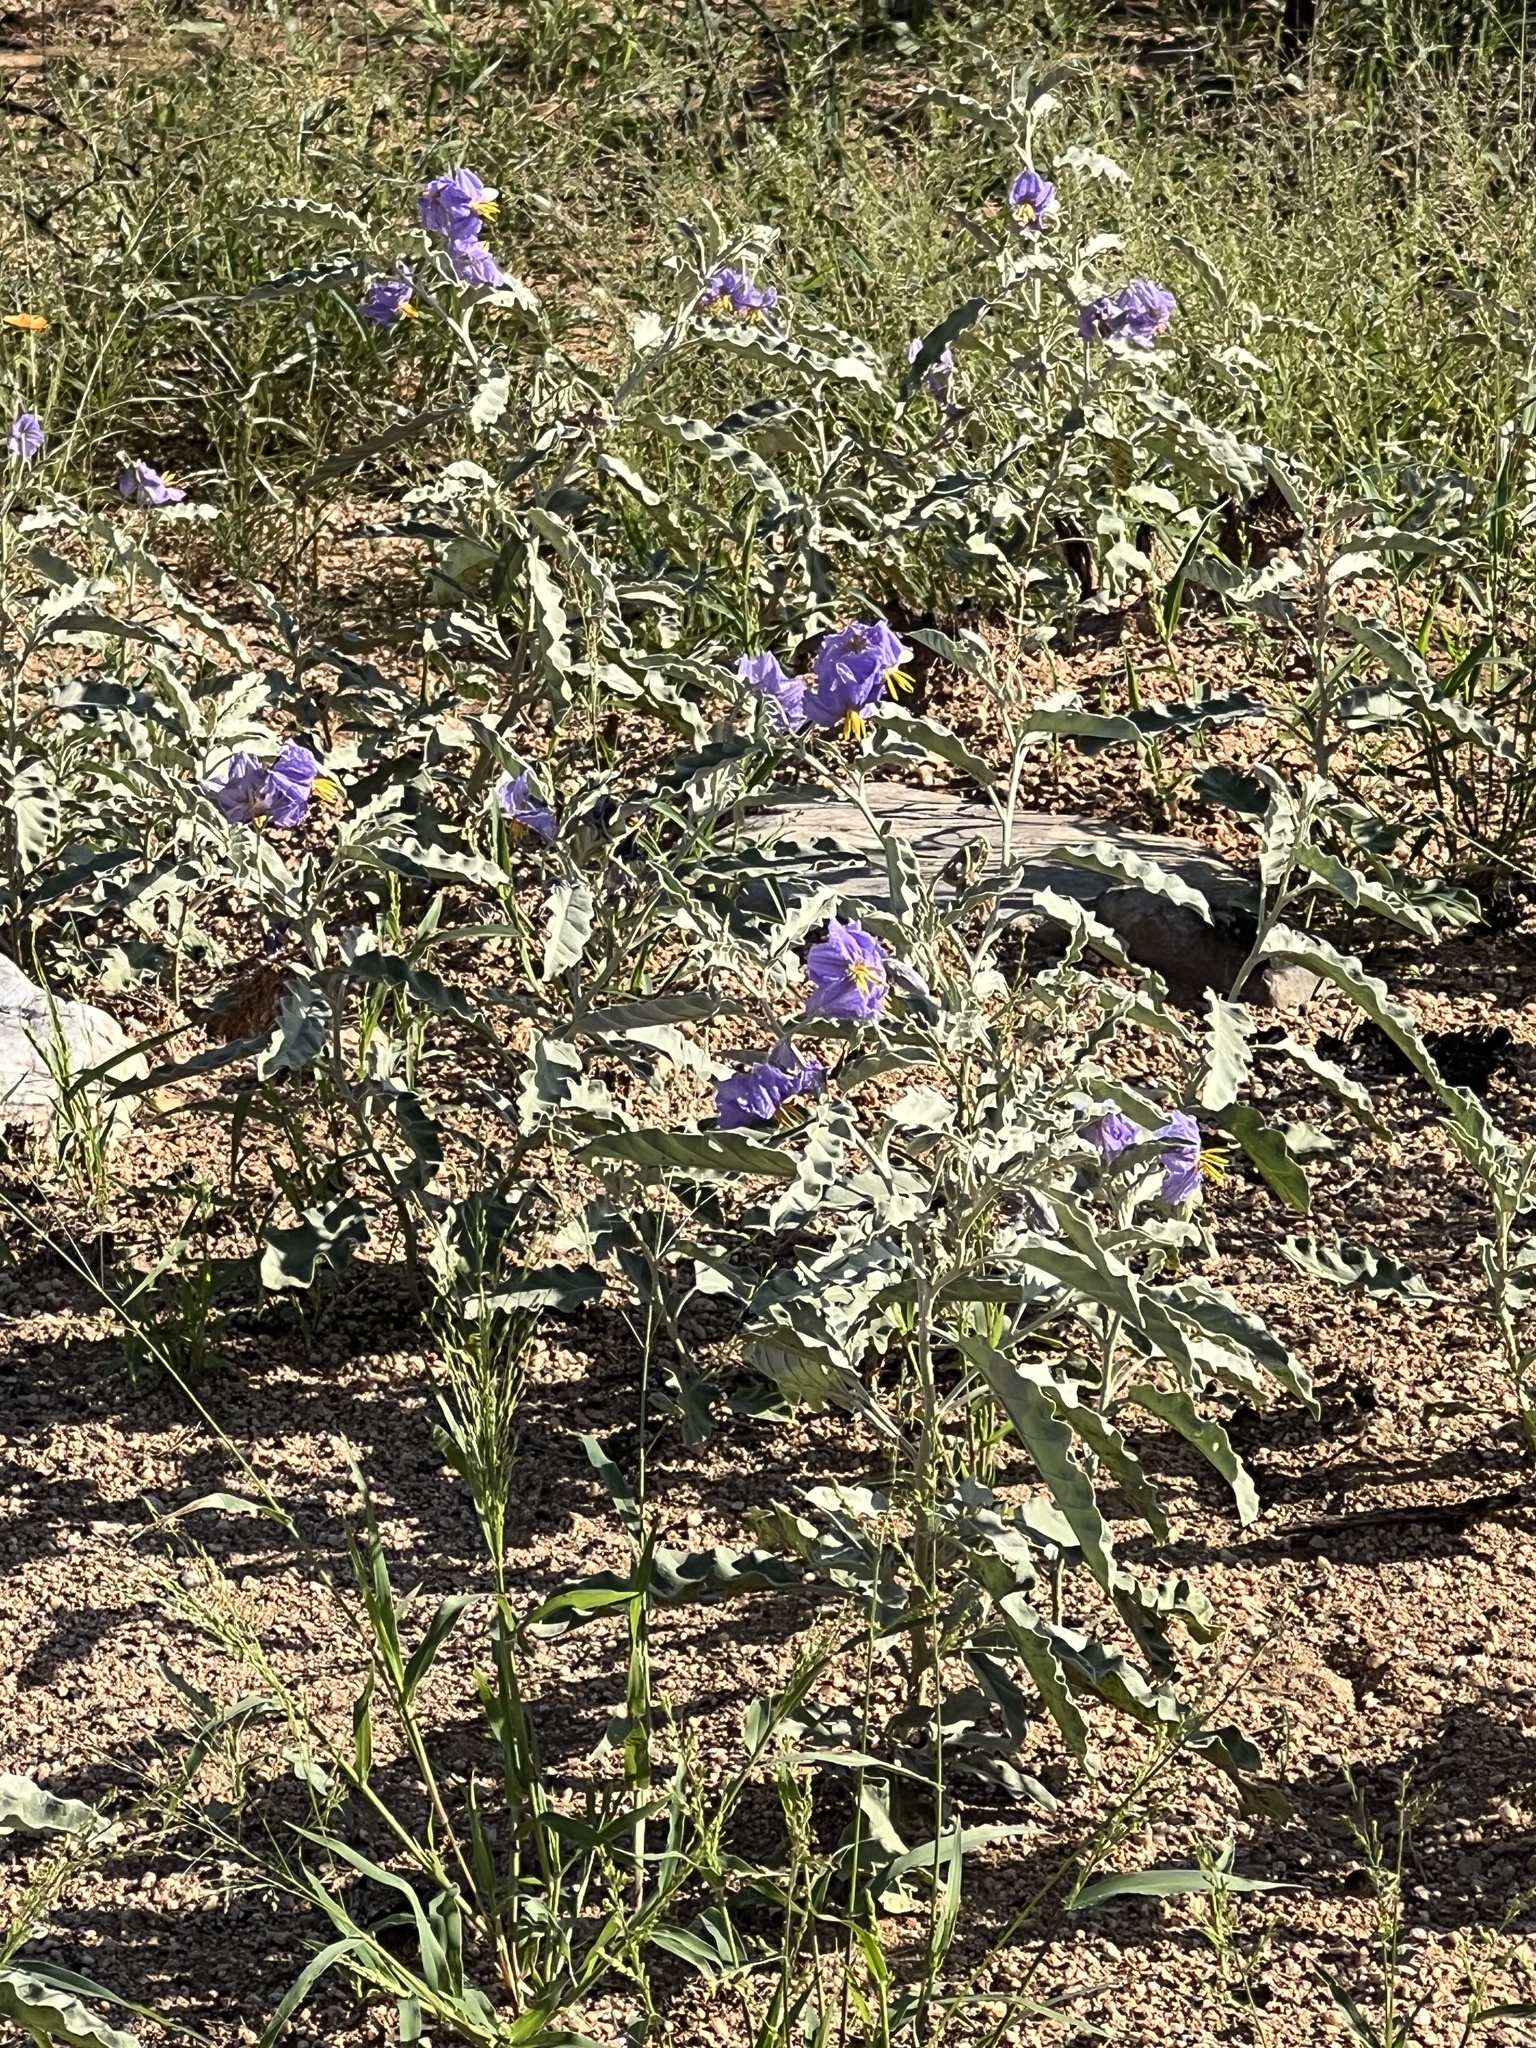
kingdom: Plantae
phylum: Tracheophyta
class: Magnoliopsida
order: Solanales
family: Solanaceae
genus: Solanum
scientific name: Solanum elaeagnifolium
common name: Silverleaf nightshade
